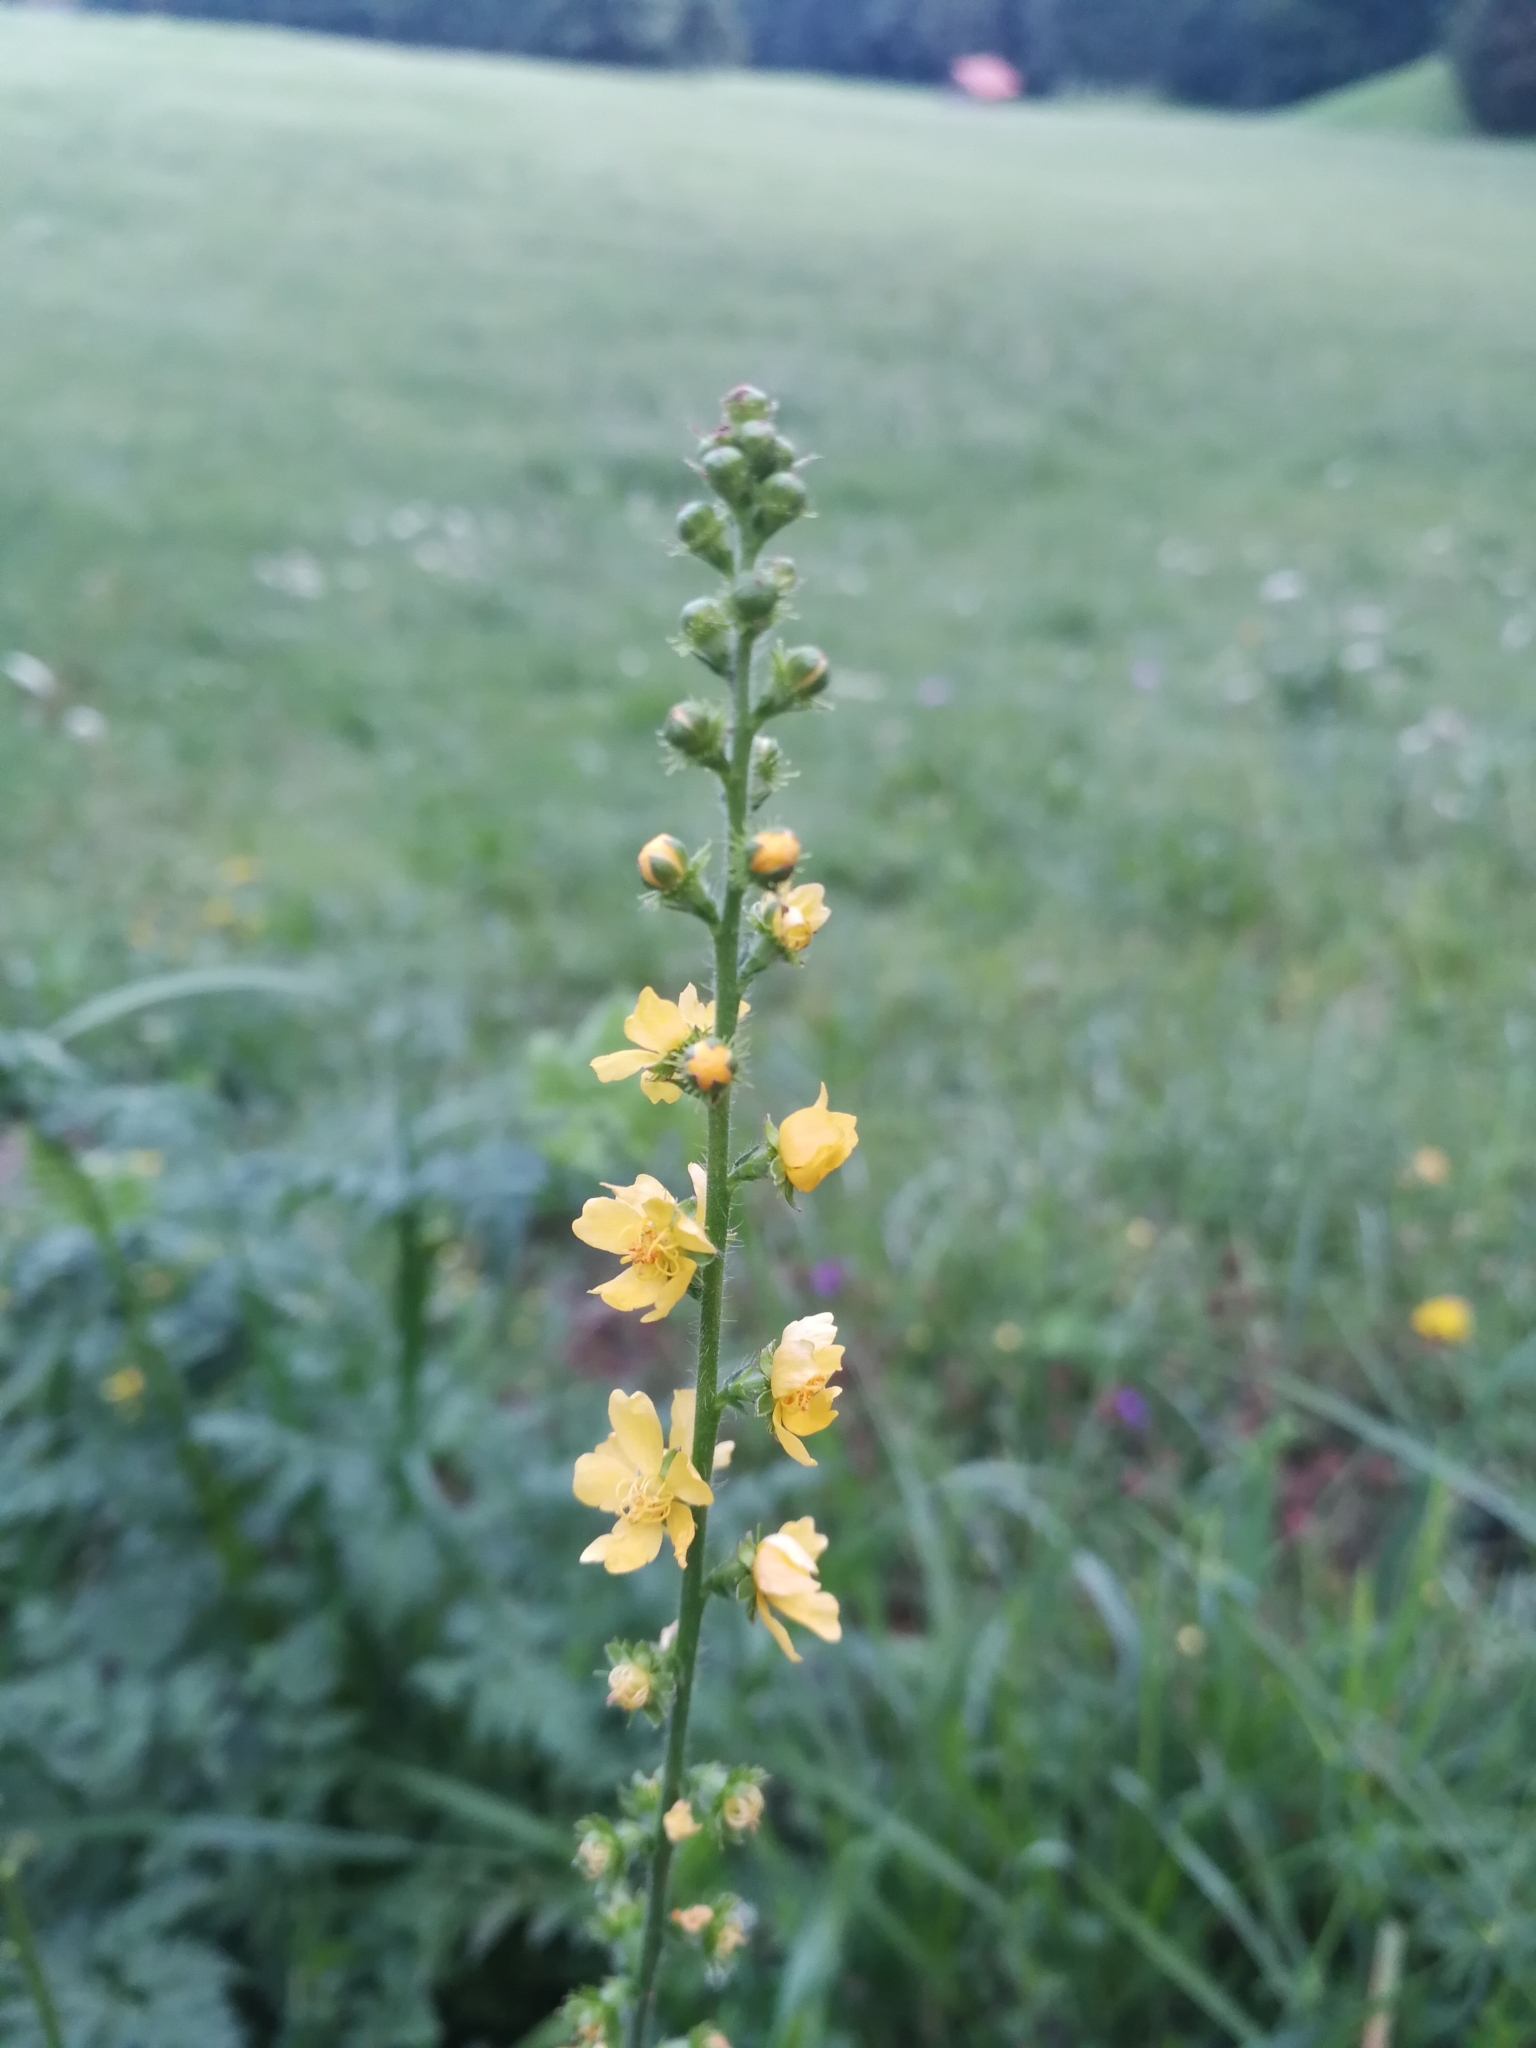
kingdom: Plantae
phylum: Tracheophyta
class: Magnoliopsida
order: Rosales
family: Rosaceae
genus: Agrimonia
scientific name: Agrimonia eupatoria
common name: Agrimony
